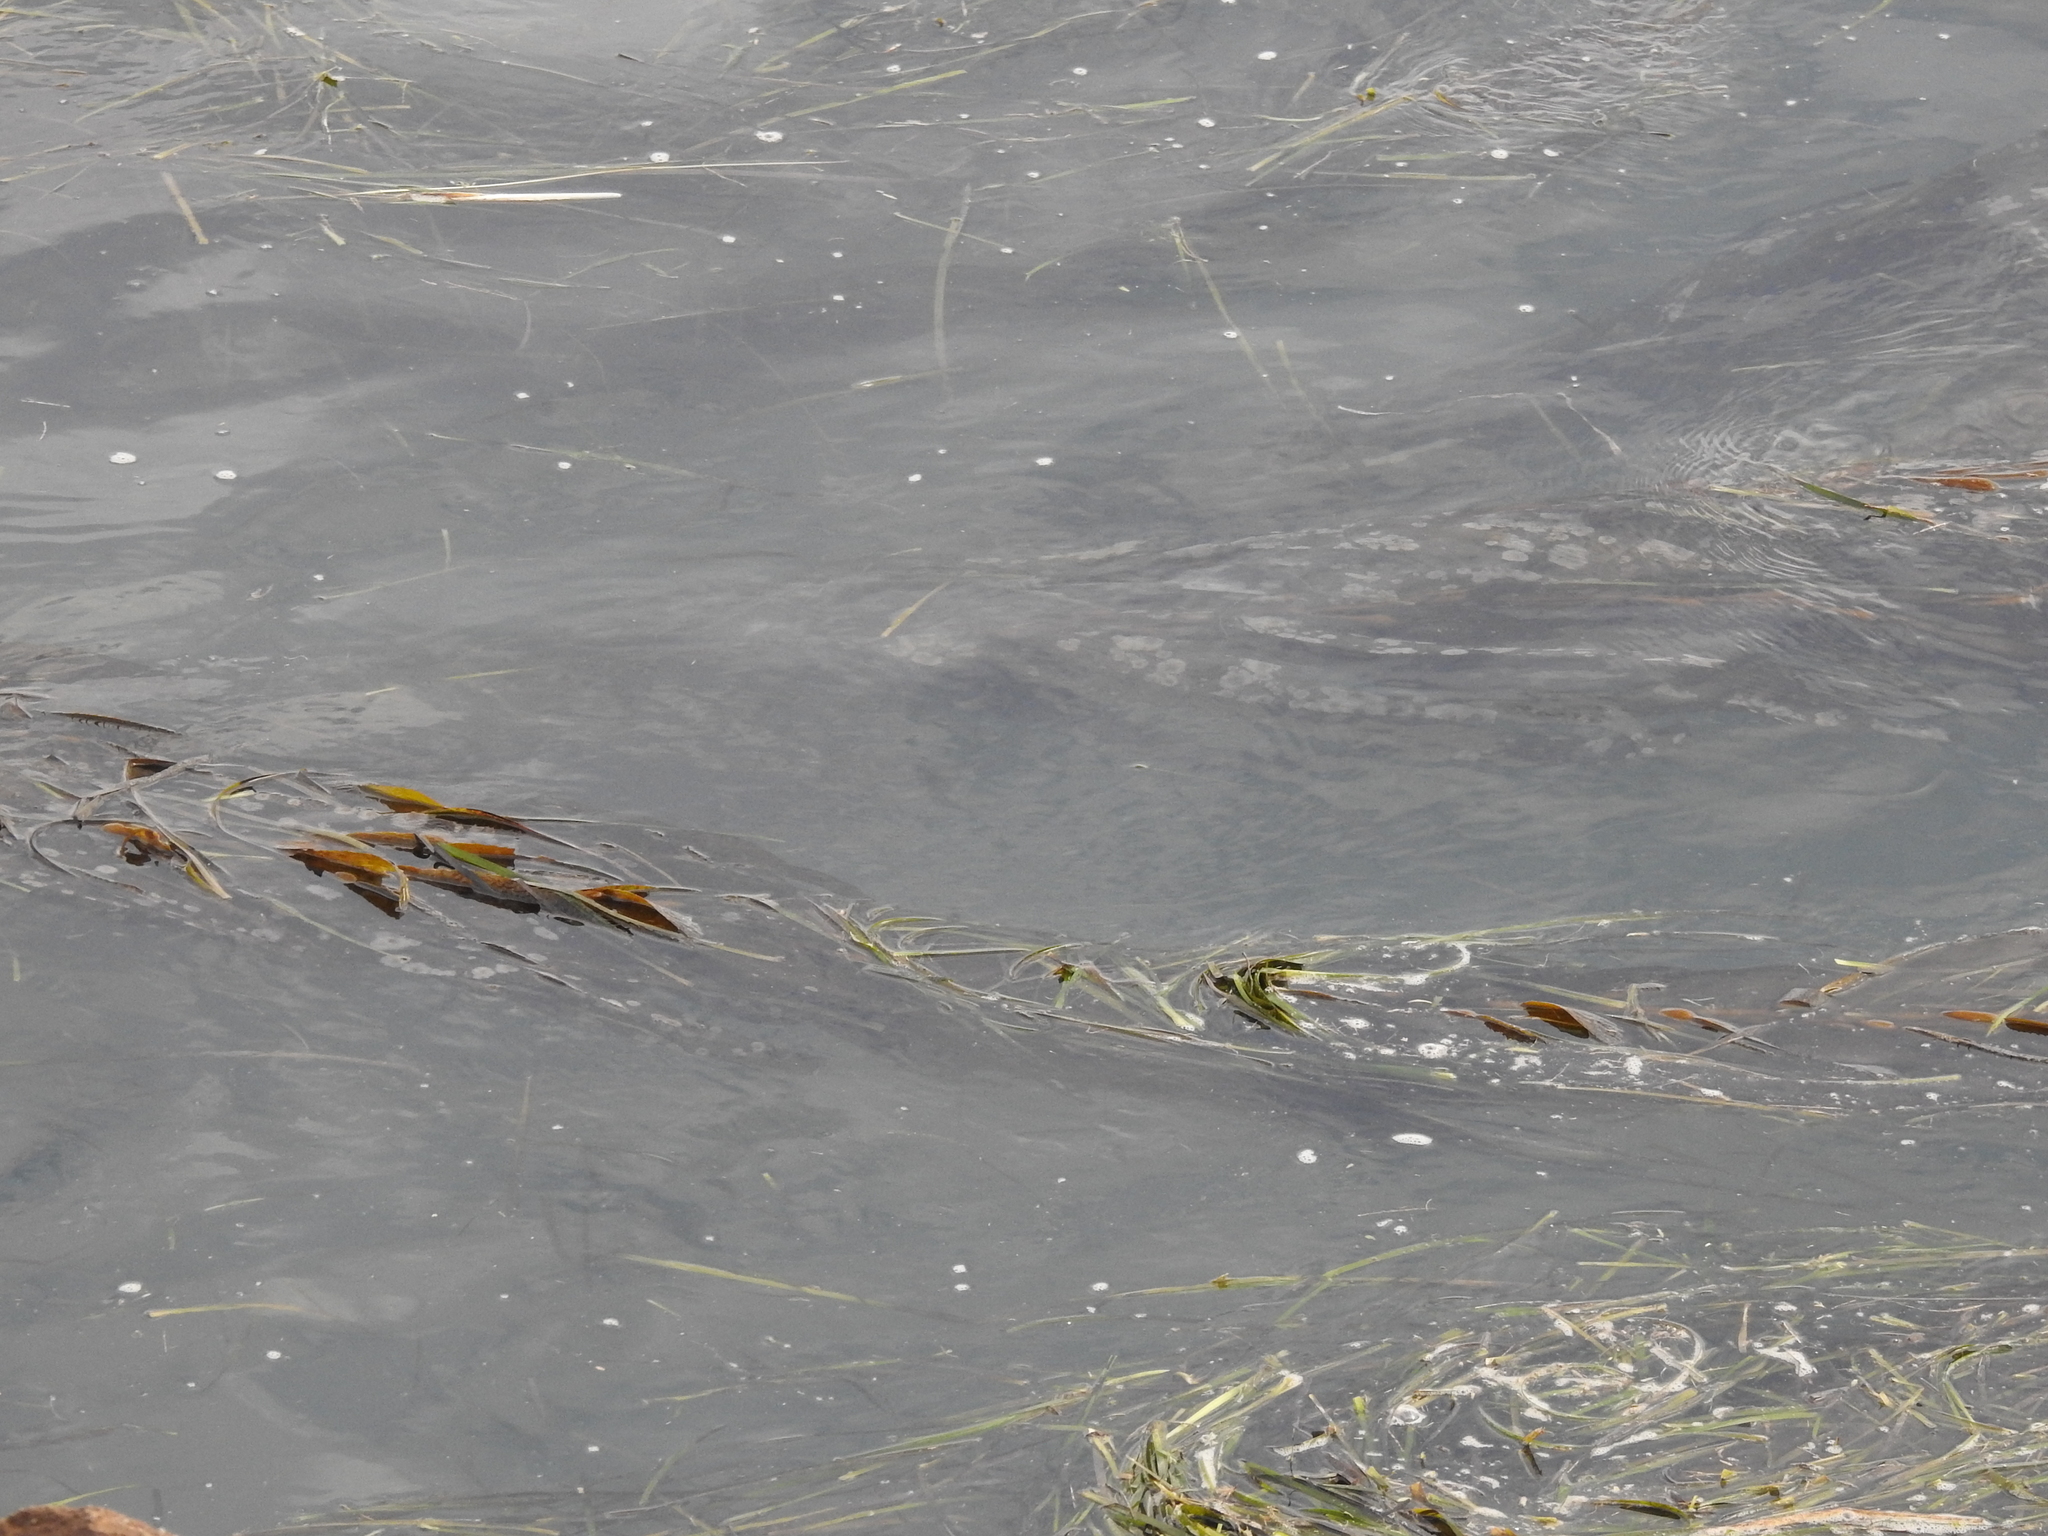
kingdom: Plantae
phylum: Tracheophyta
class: Liliopsida
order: Alismatales
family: Zosteraceae
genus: Zostera
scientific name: Zostera marina
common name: Eelgrass
